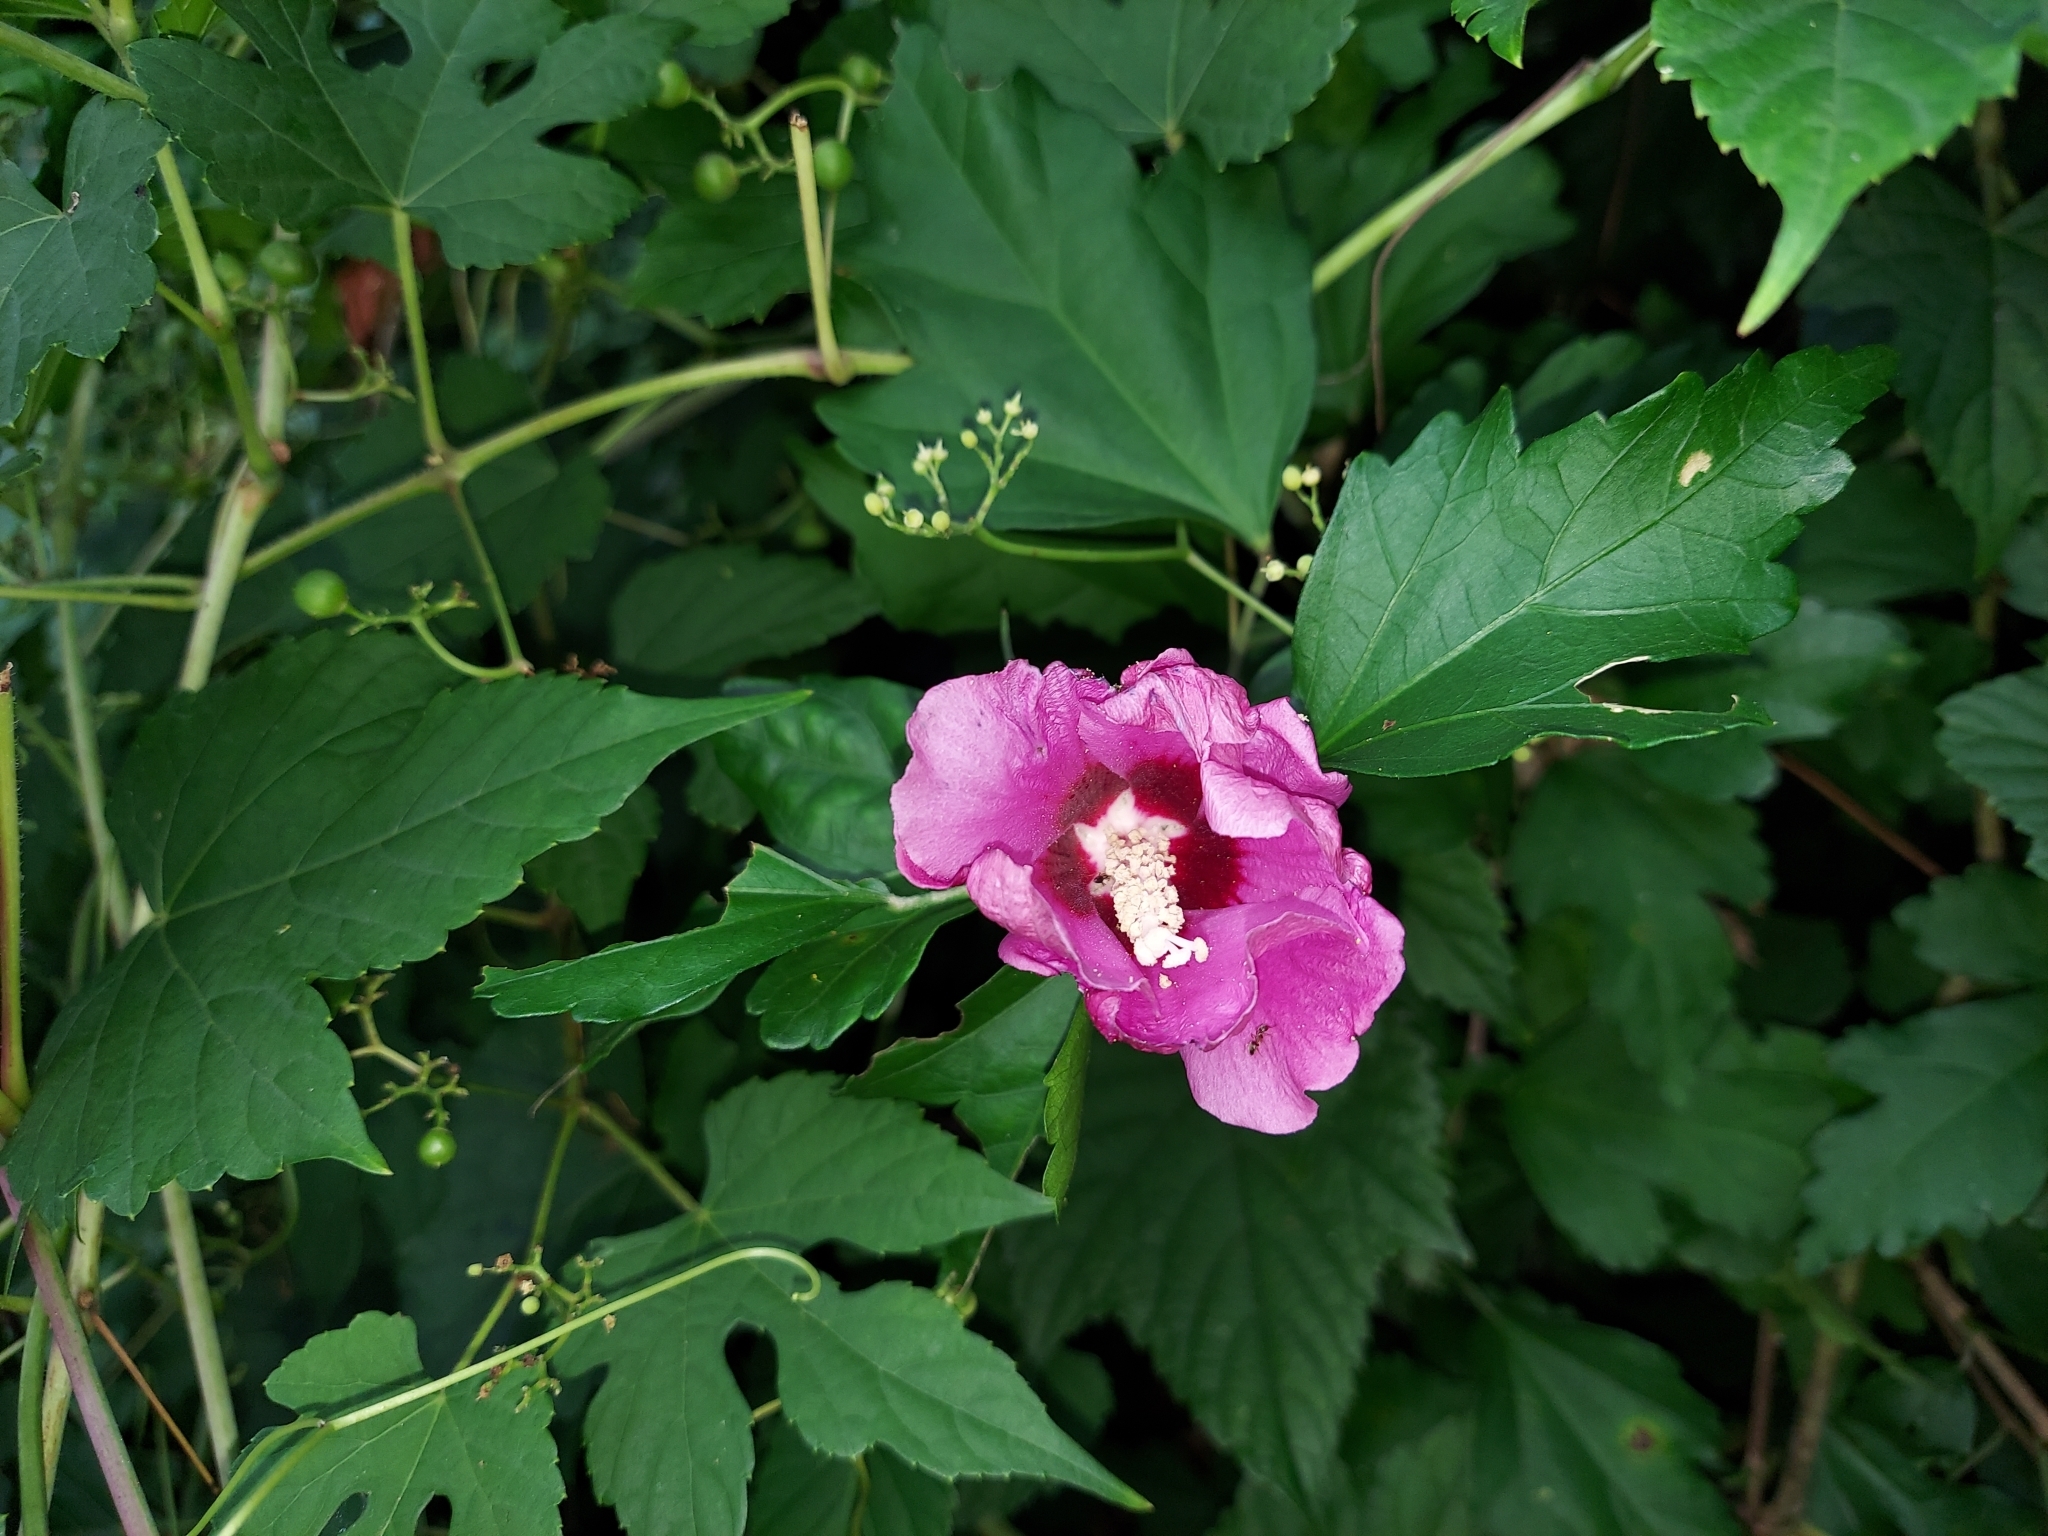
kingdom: Plantae
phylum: Tracheophyta
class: Magnoliopsida
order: Malvales
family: Malvaceae
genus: Hibiscus
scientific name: Hibiscus syriacus
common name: Syrian ketmia
